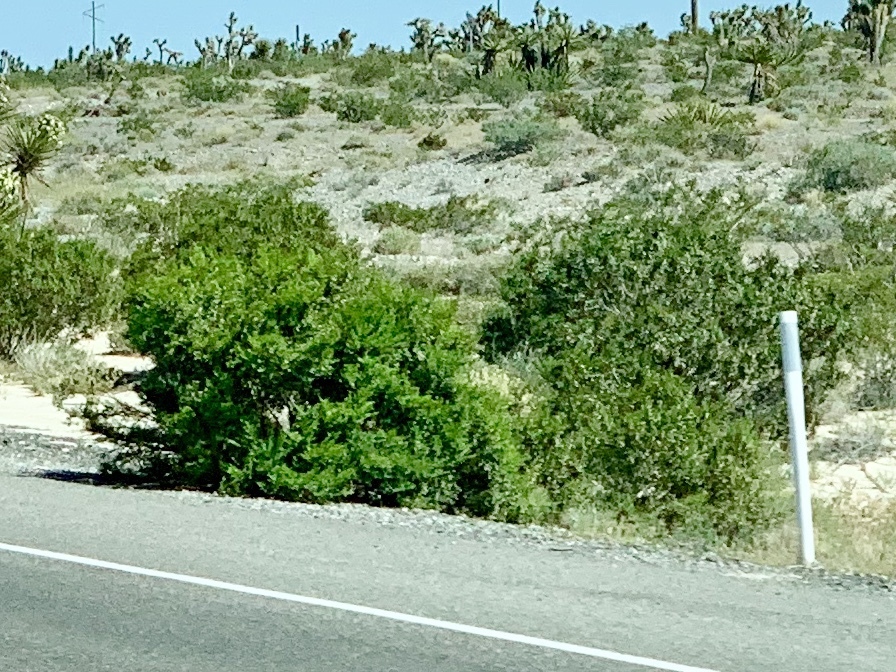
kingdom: Plantae
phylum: Tracheophyta
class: Magnoliopsida
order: Zygophyllales
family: Zygophyllaceae
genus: Larrea
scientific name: Larrea tridentata
